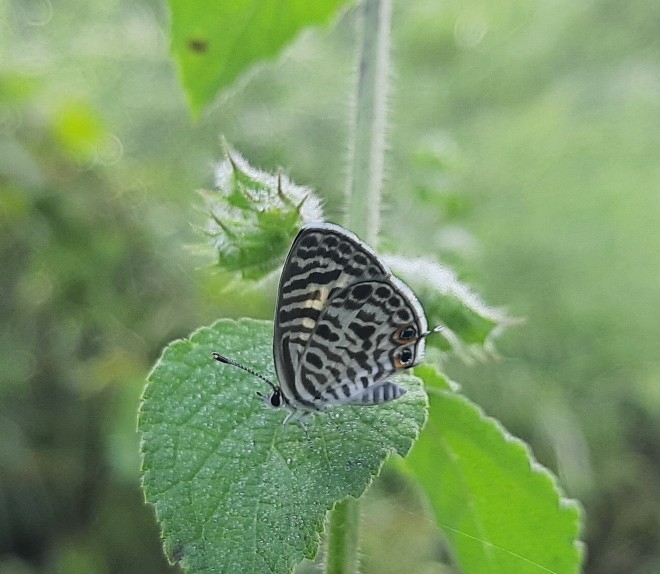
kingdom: Animalia
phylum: Arthropoda
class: Insecta
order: Lepidoptera
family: Lycaenidae
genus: Leptotes
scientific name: Leptotes plinius
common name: Zebra blue
